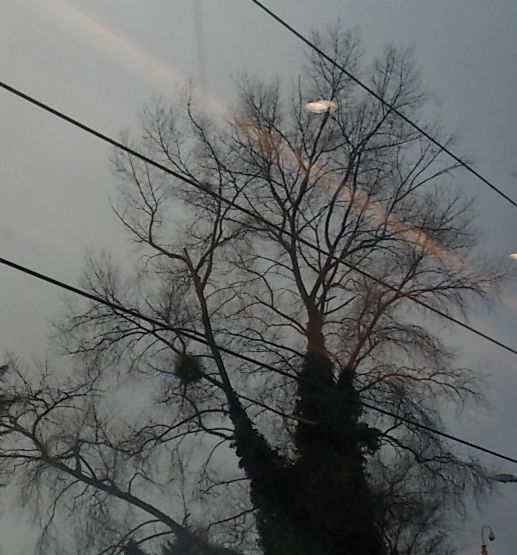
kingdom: Plantae
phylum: Tracheophyta
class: Magnoliopsida
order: Santalales
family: Viscaceae
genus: Viscum
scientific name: Viscum album
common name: Mistletoe
